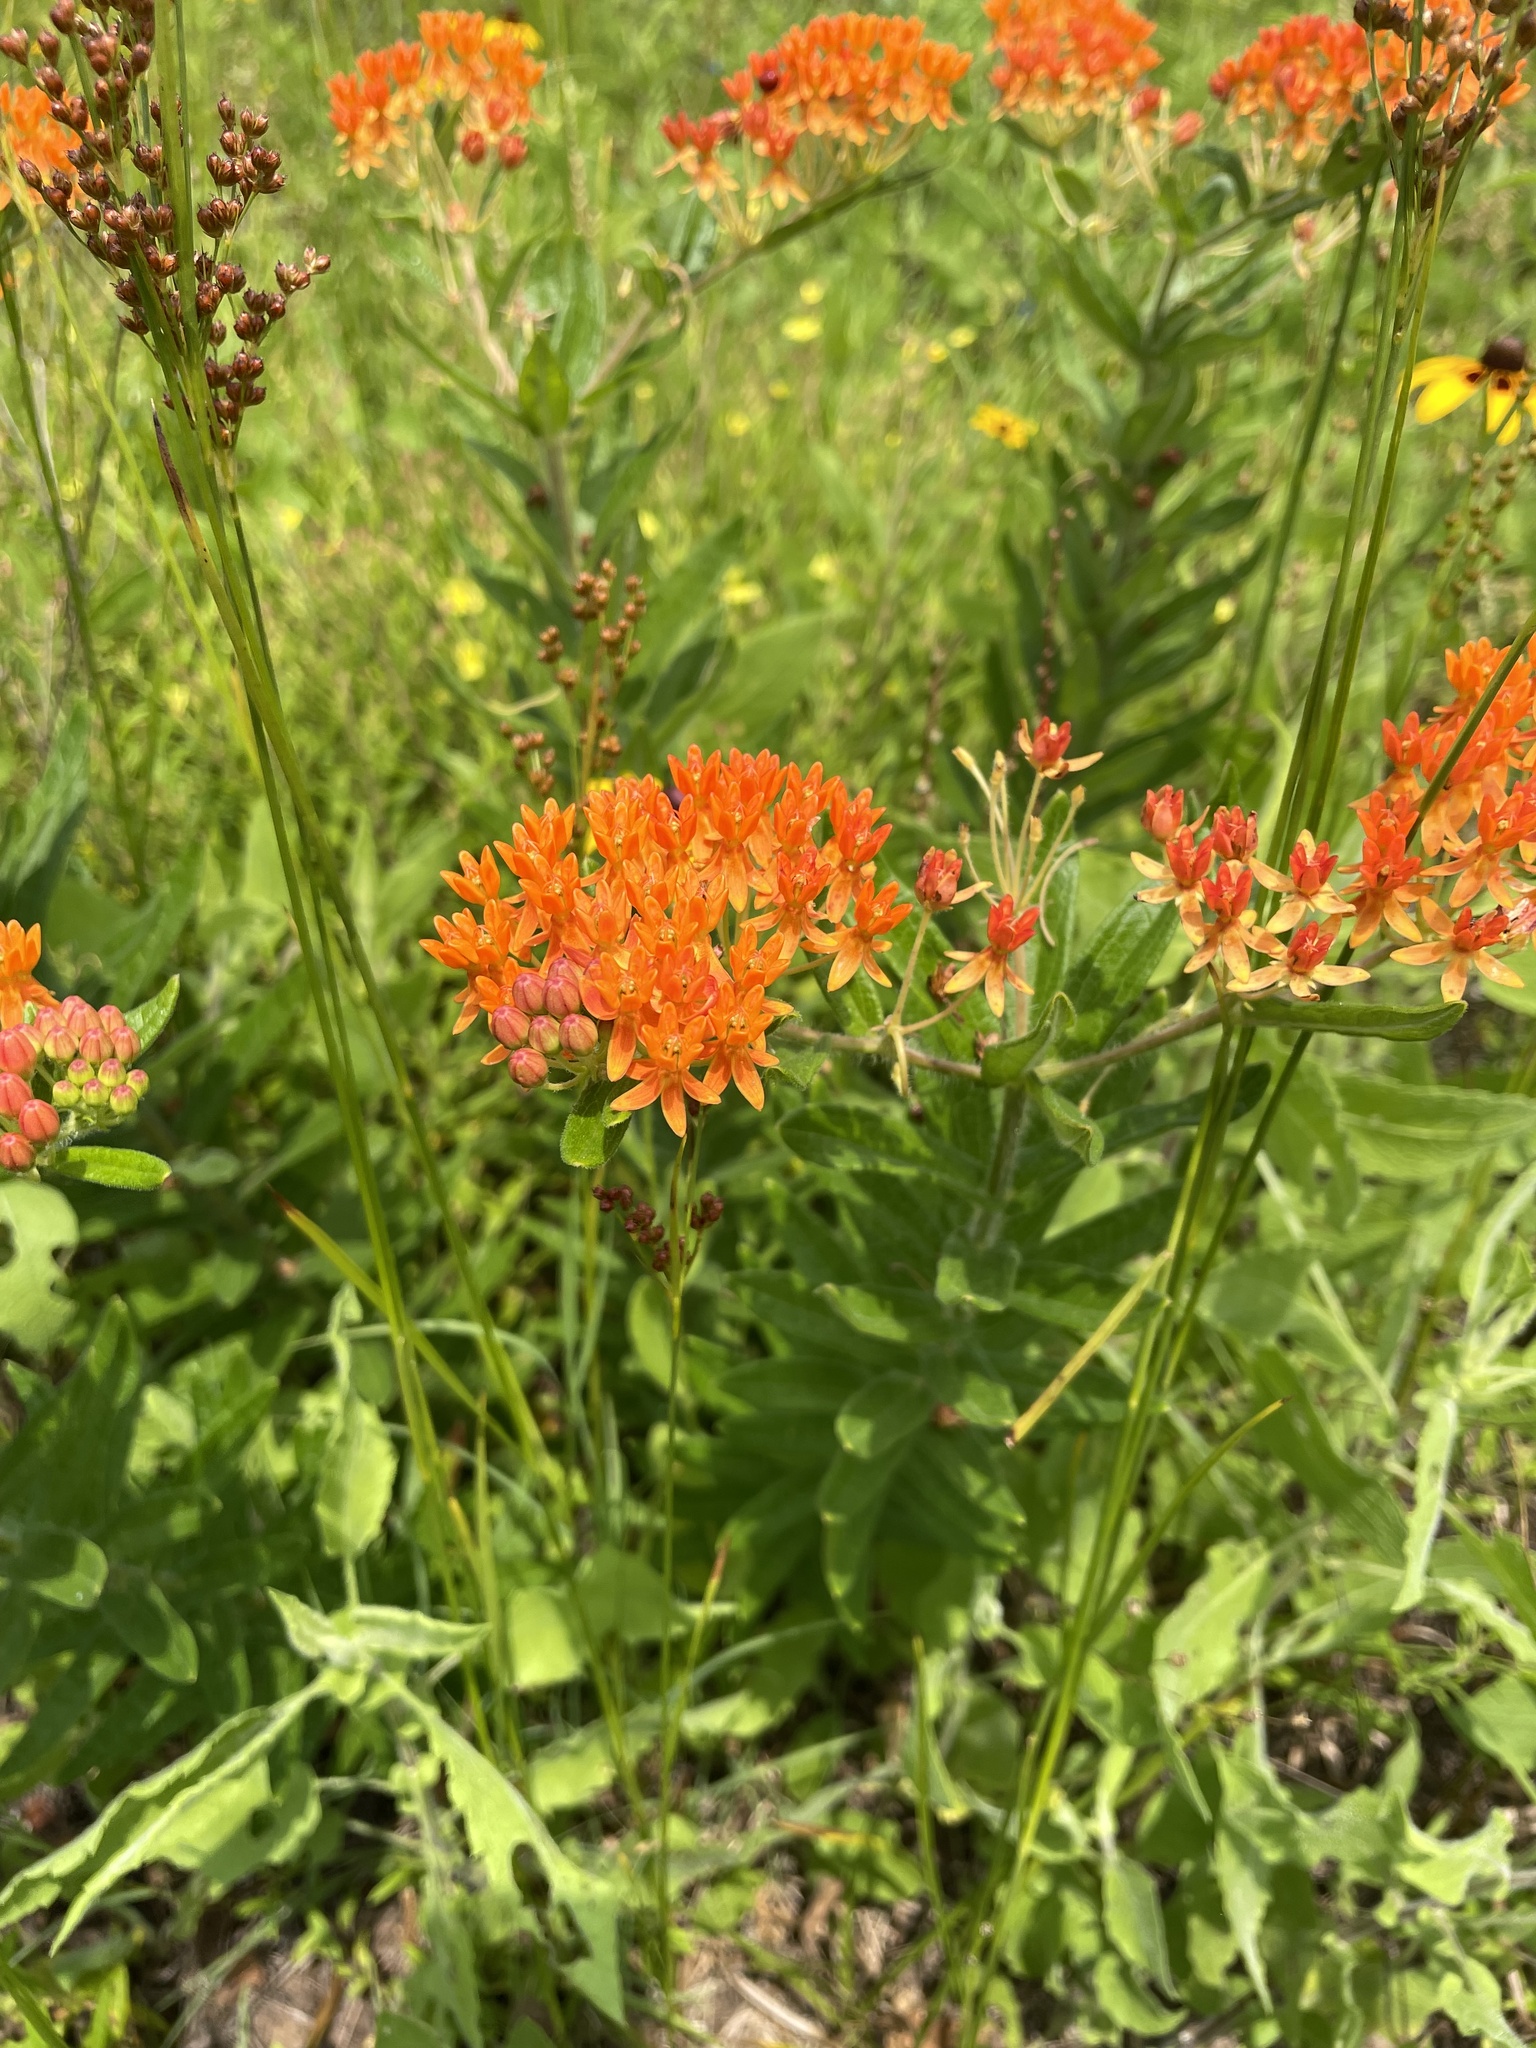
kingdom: Plantae
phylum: Tracheophyta
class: Magnoliopsida
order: Gentianales
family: Apocynaceae
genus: Asclepias
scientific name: Asclepias tuberosa
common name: Butterfly milkweed
